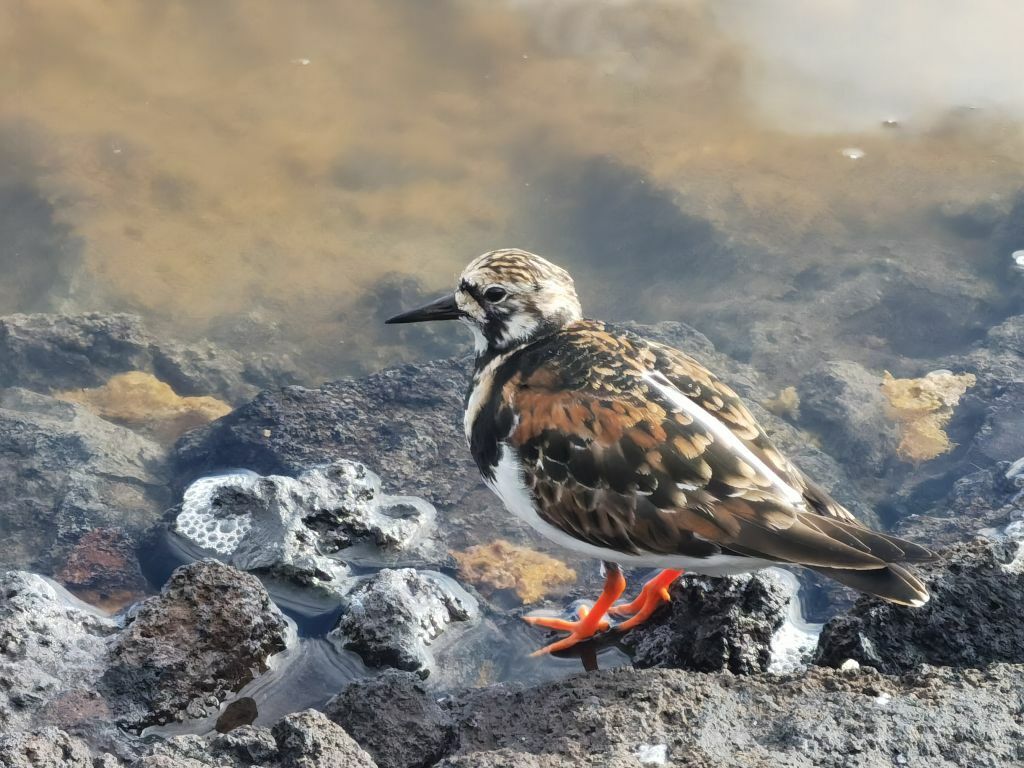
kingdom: Animalia
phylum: Chordata
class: Aves
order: Charadriiformes
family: Scolopacidae
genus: Arenaria
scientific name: Arenaria interpres
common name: Ruddy turnstone
